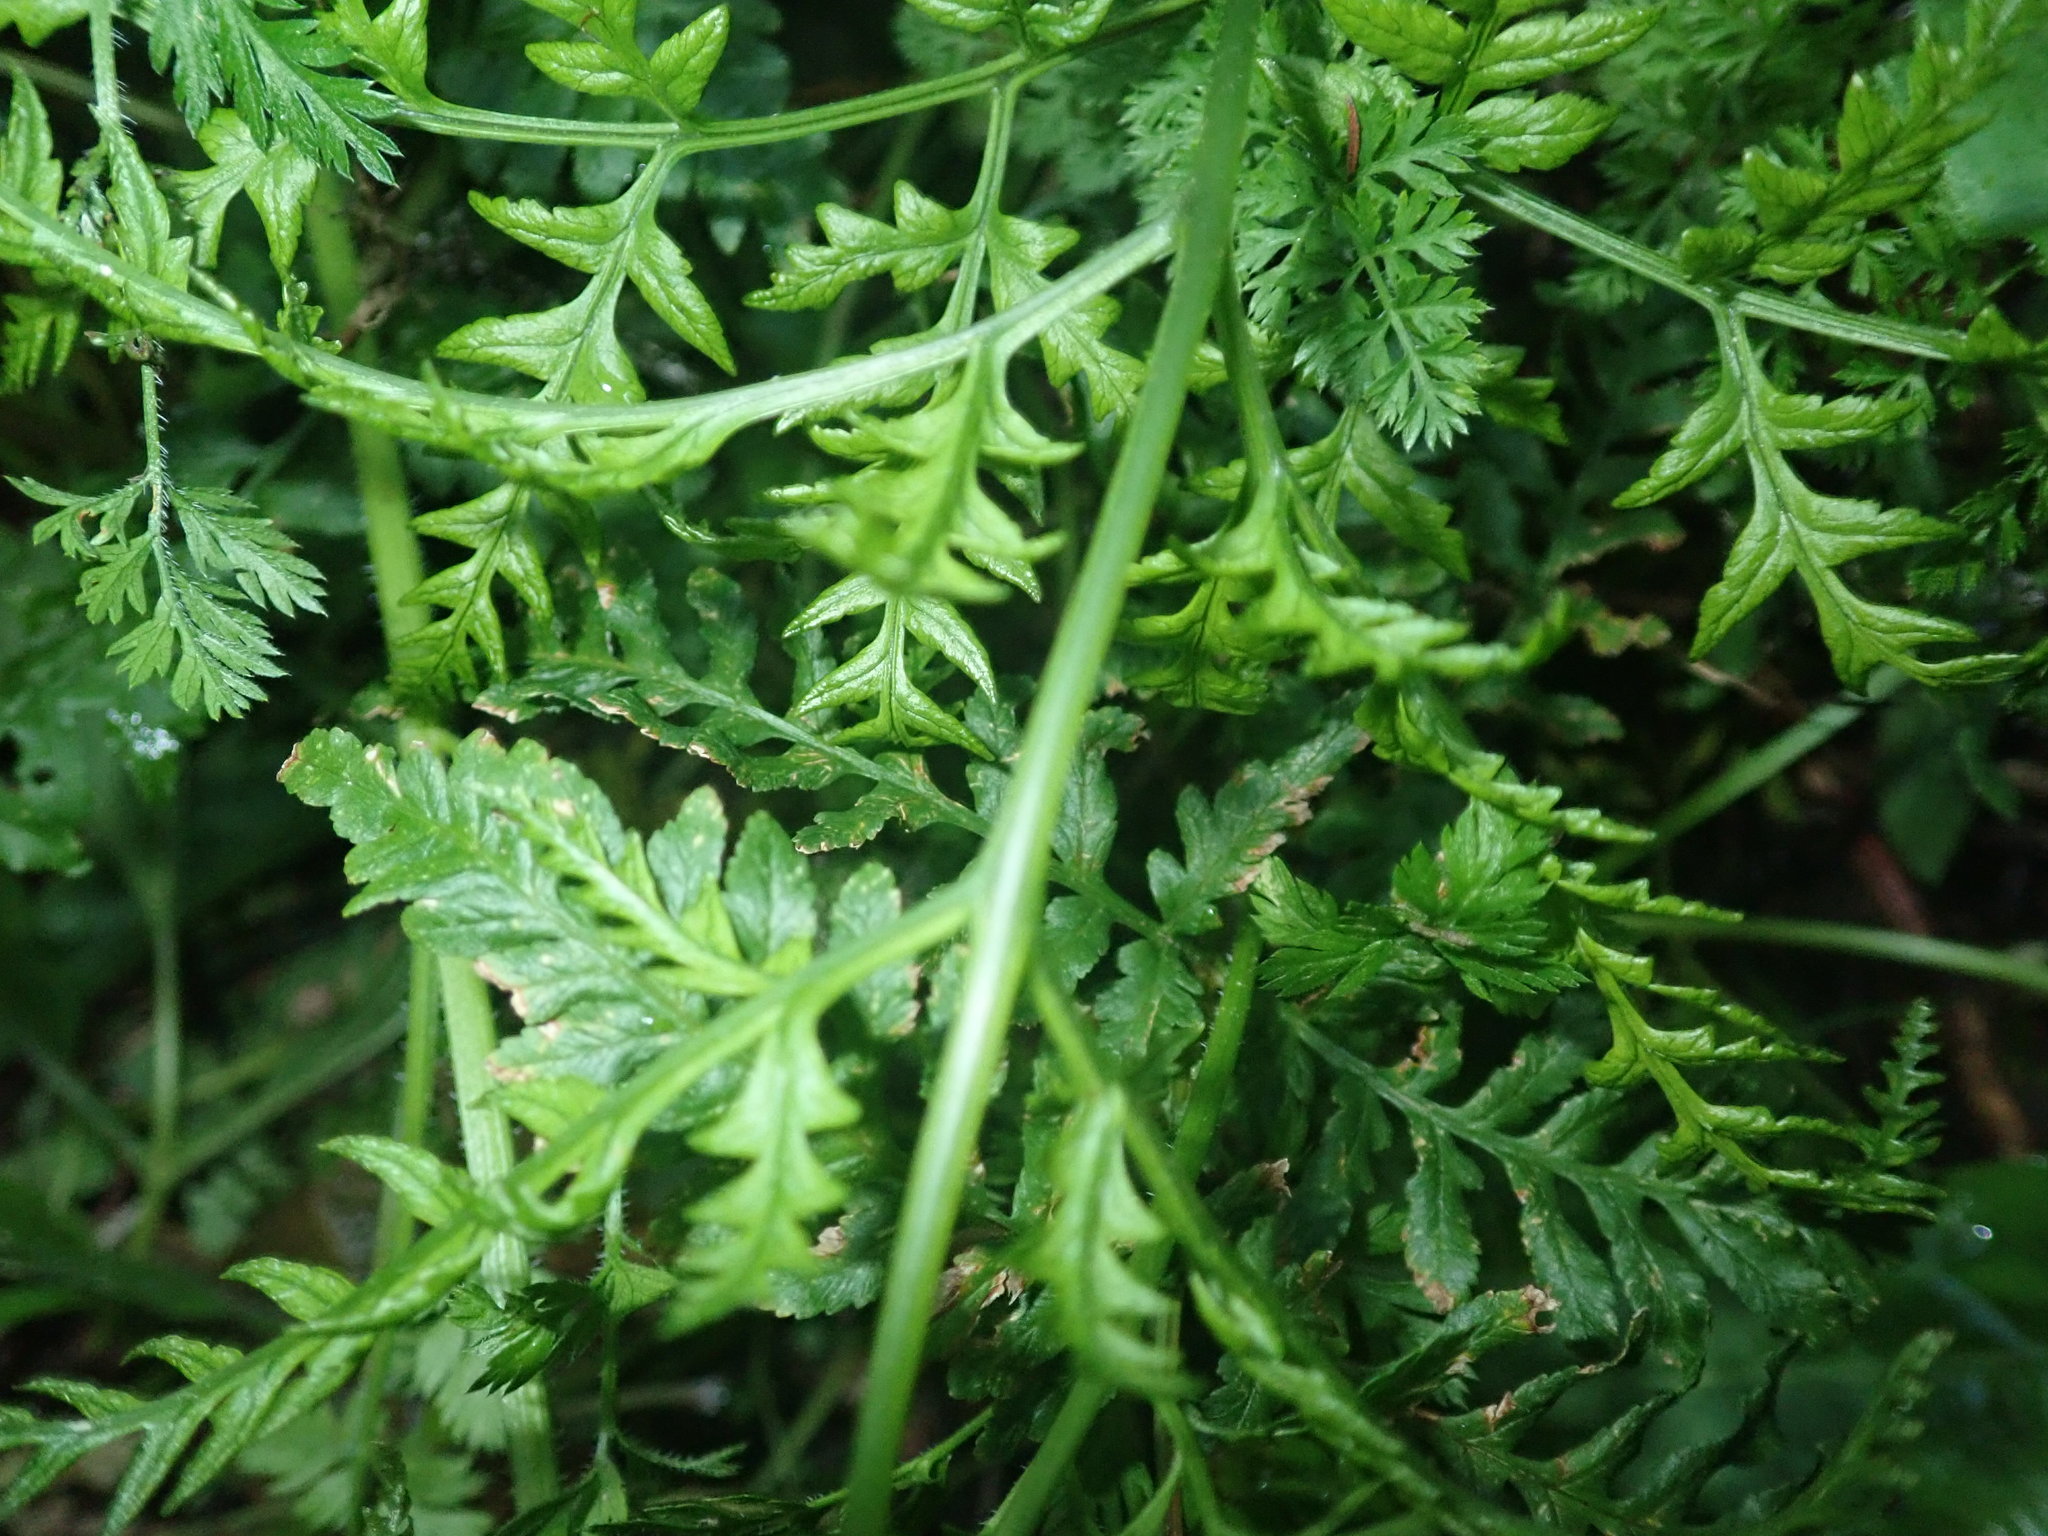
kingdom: Plantae
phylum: Tracheophyta
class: Polypodiopsida
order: Polypodiales
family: Pteridaceae
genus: Pteris
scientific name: Pteris tremula
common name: Australian brake
